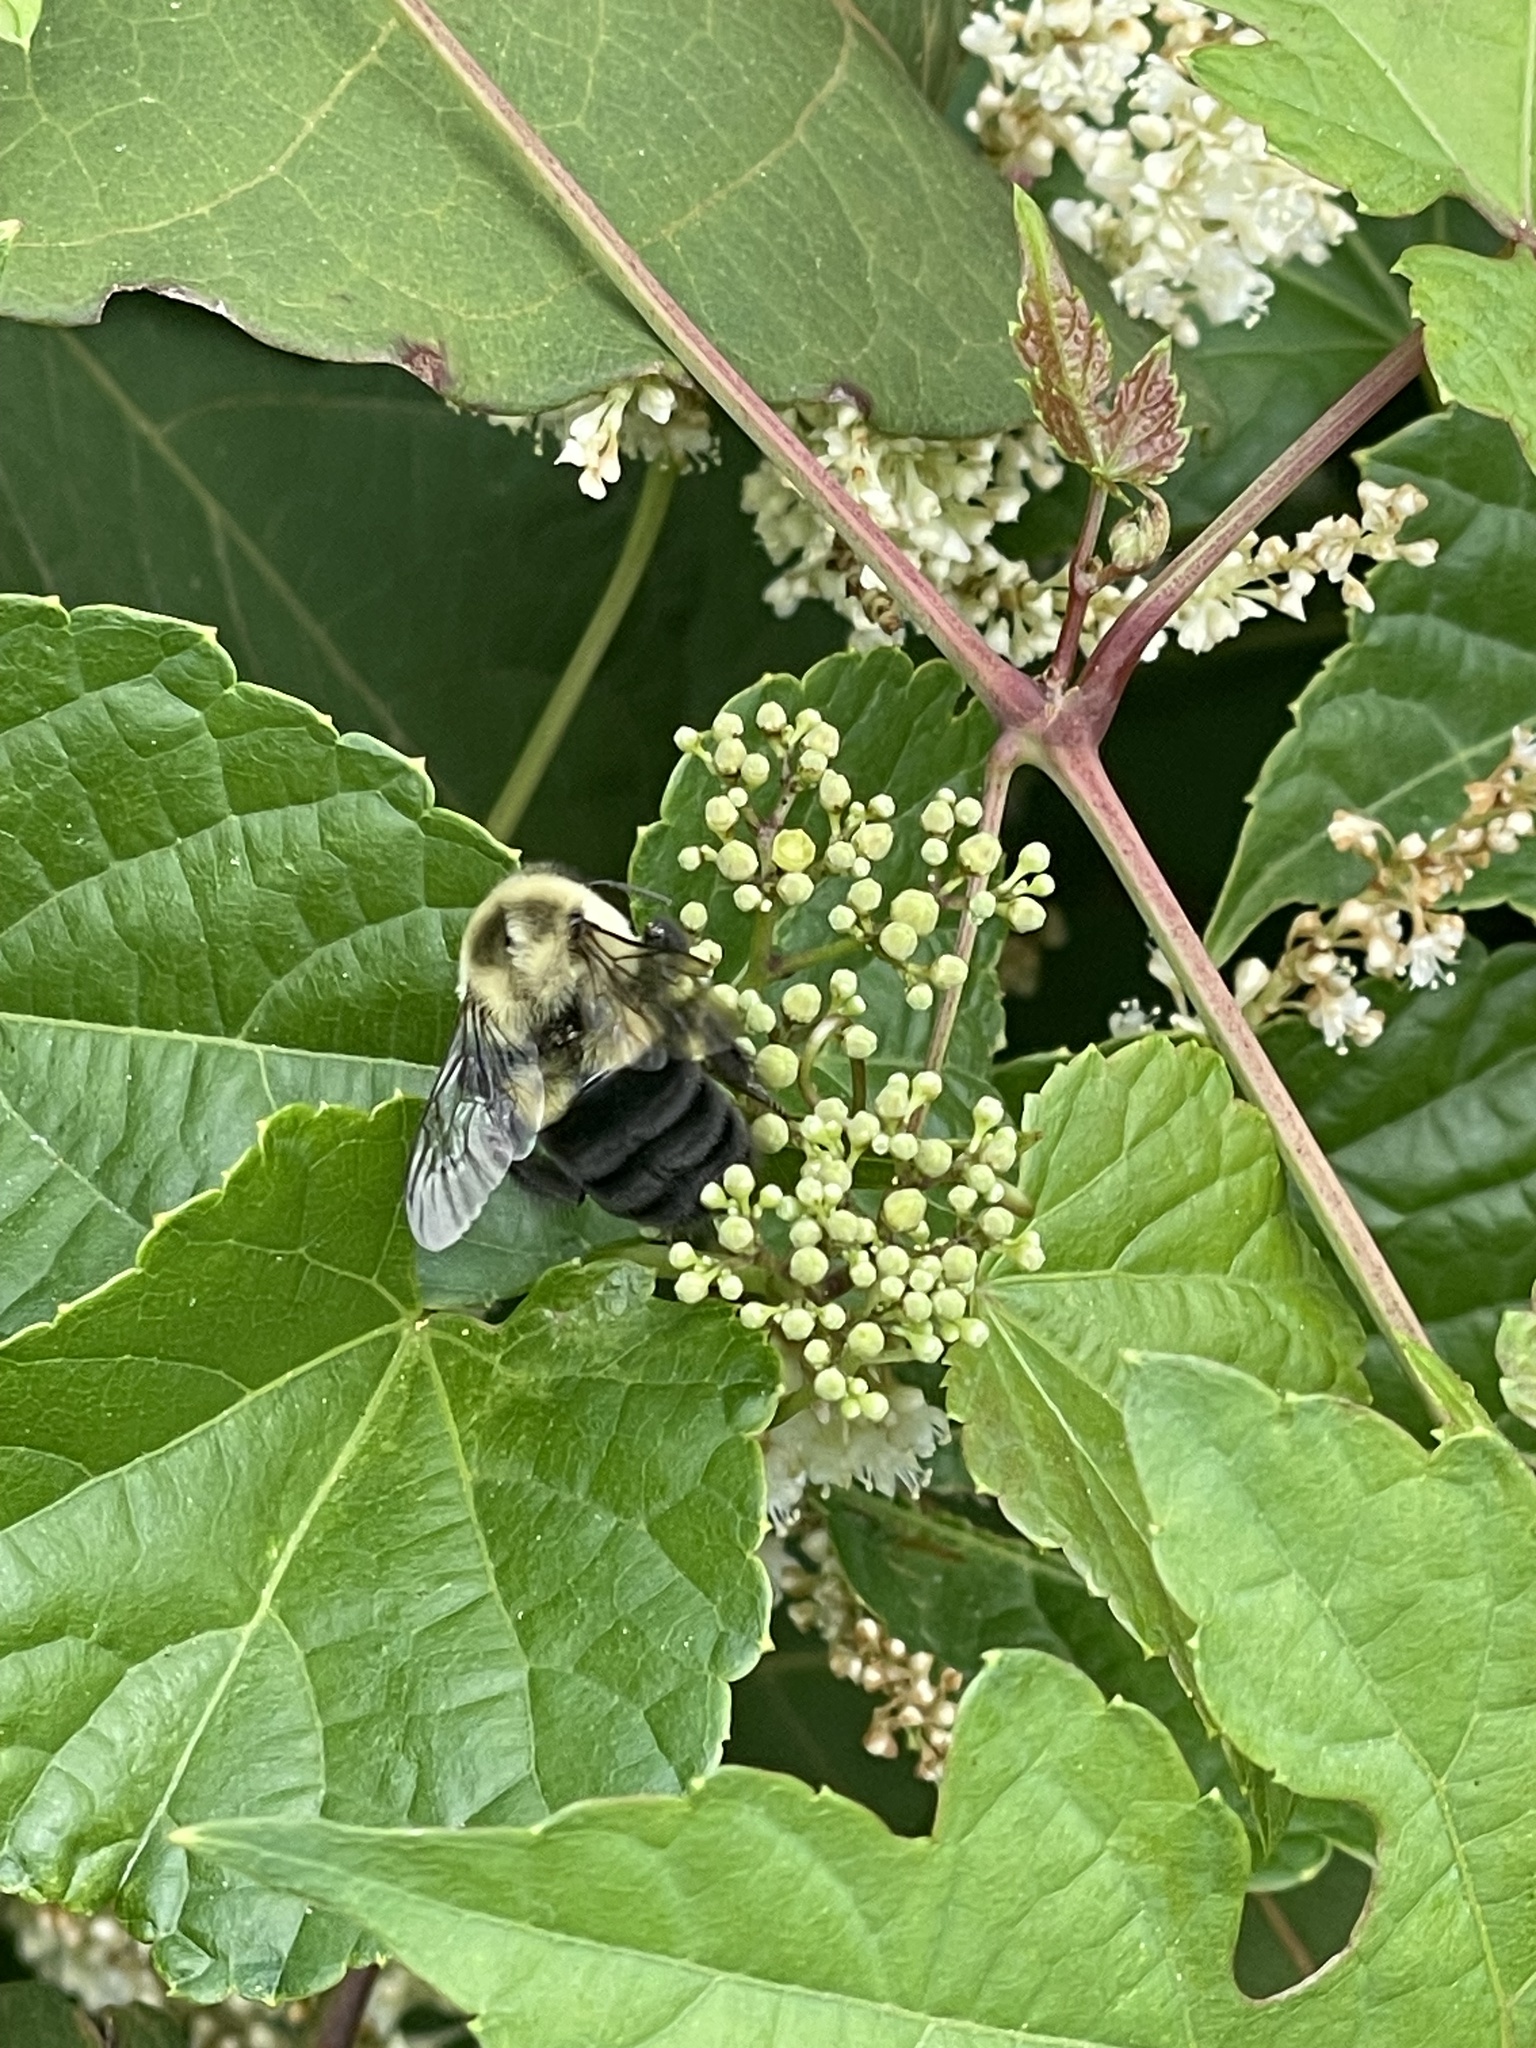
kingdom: Animalia
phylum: Arthropoda
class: Insecta
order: Hymenoptera
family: Apidae
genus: Bombus
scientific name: Bombus impatiens
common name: Common eastern bumble bee
